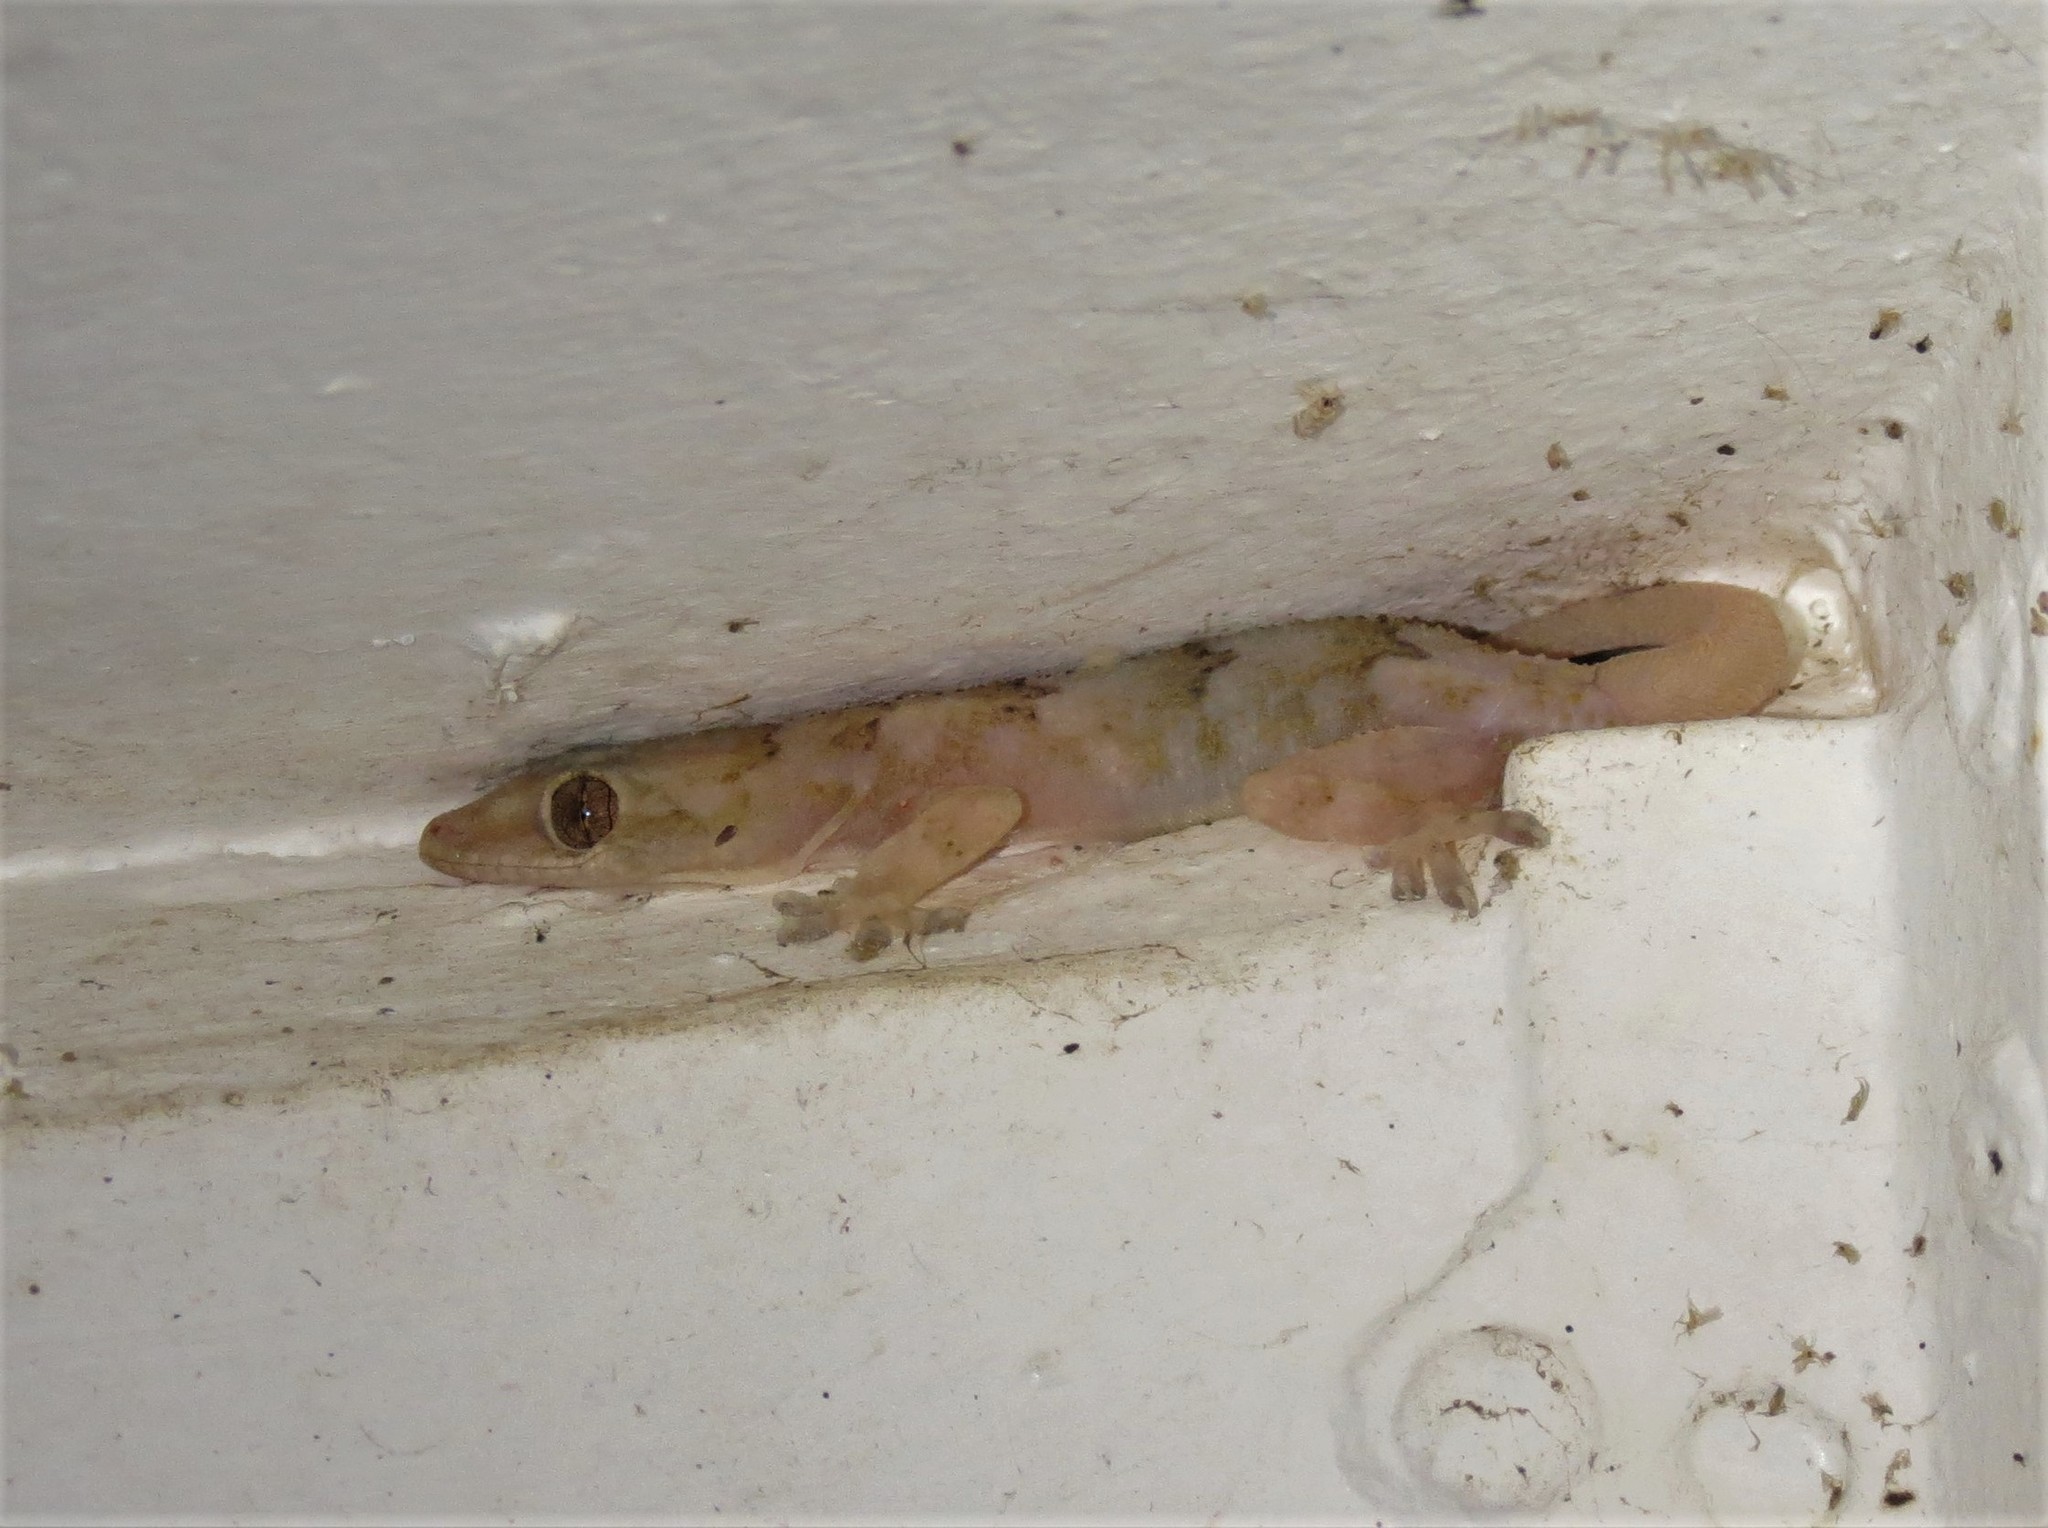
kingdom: Animalia
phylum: Chordata
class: Squamata
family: Gekkonidae
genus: Hemidactylus
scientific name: Hemidactylus mabouia
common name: House gecko
